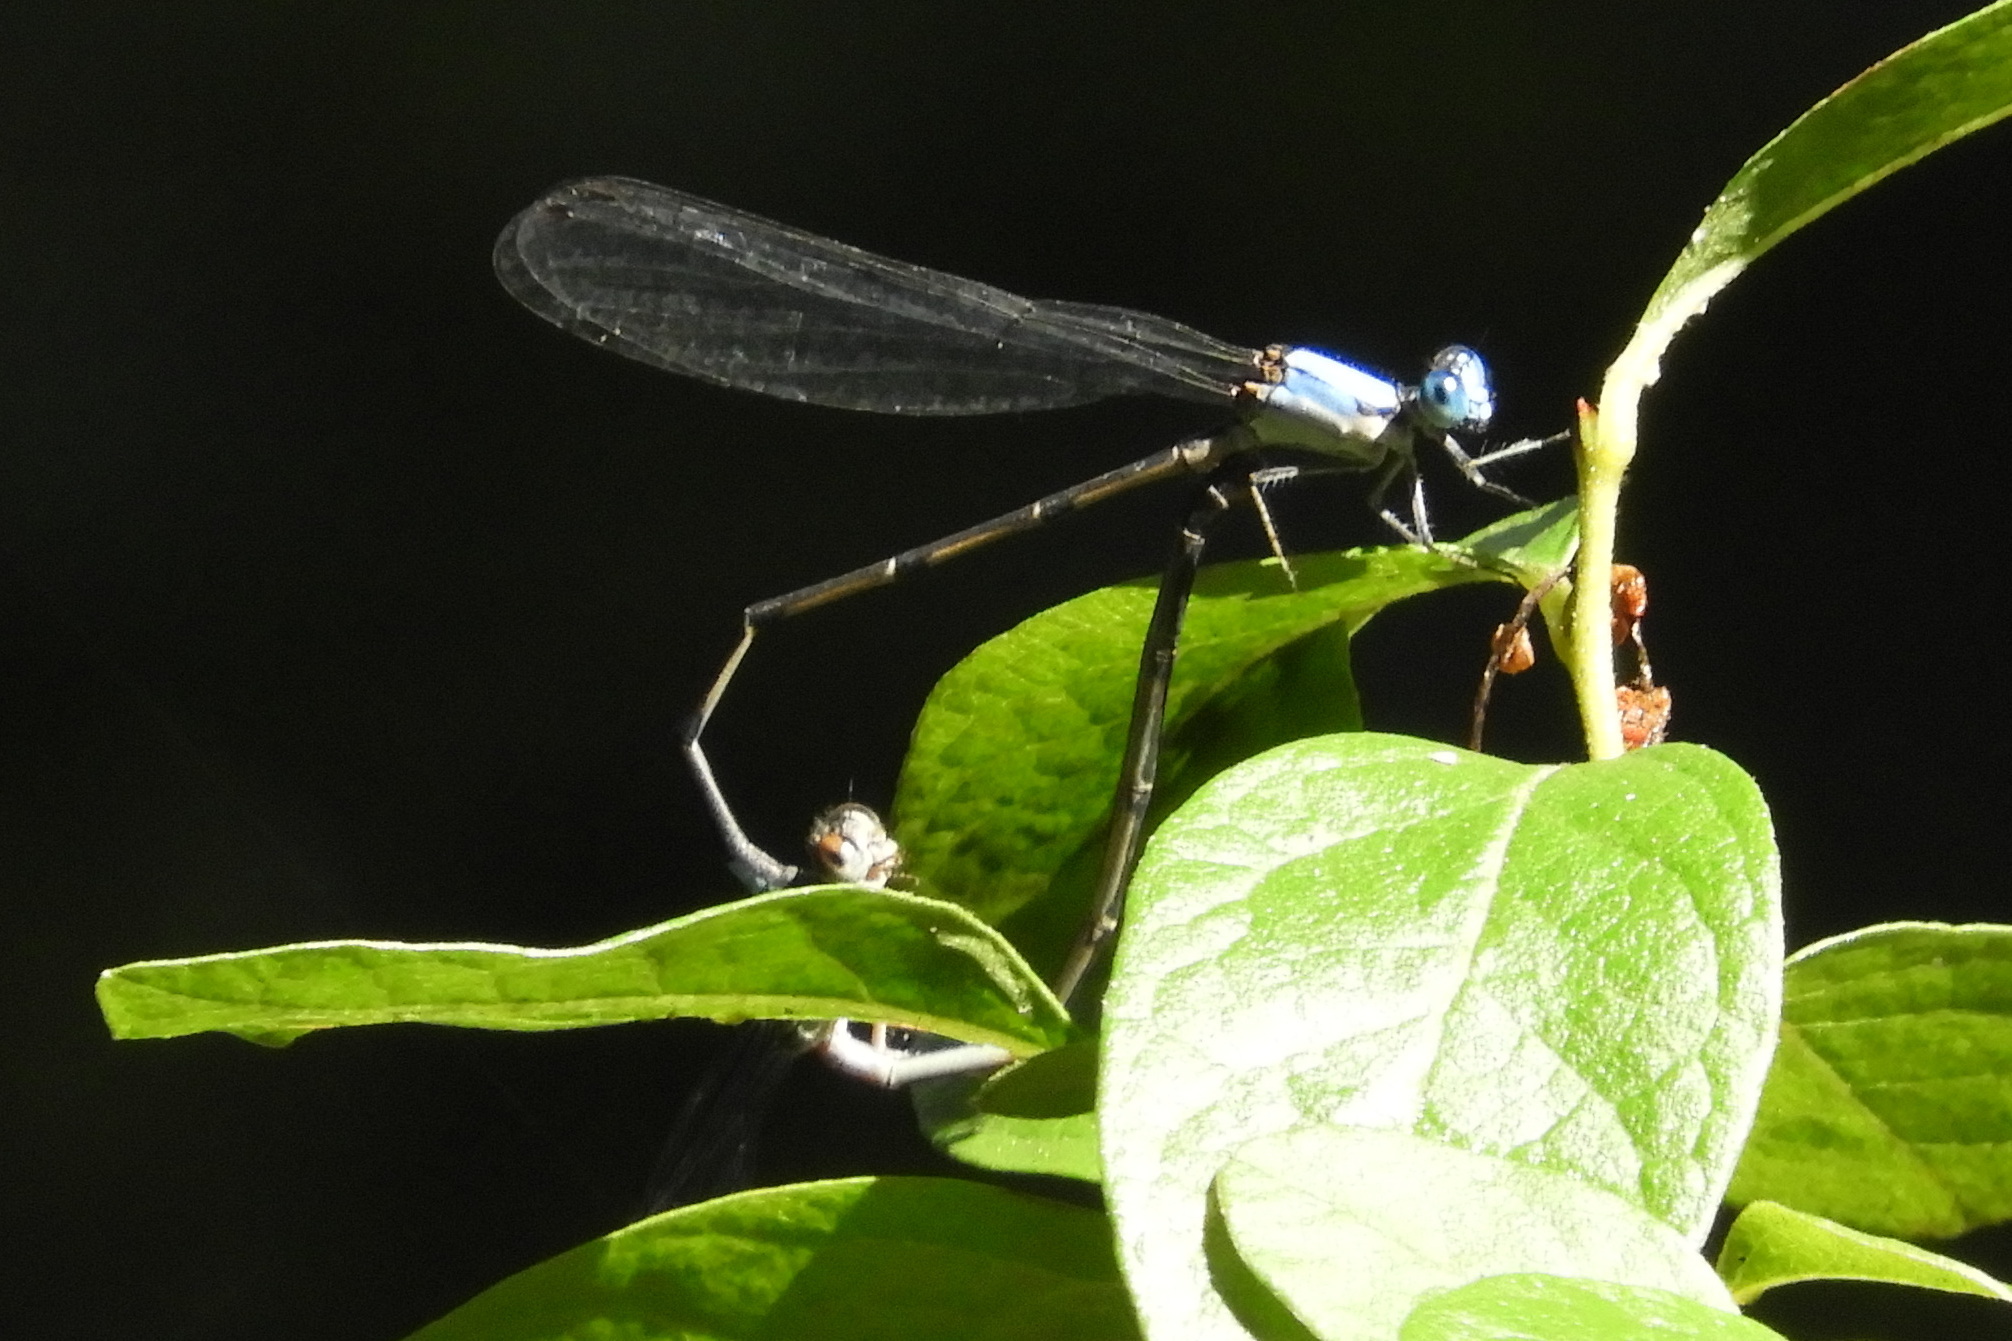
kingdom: Animalia
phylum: Arthropoda
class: Insecta
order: Odonata
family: Coenagrionidae
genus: Argia
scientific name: Argia apicalis
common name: Blue-fronted dancer
